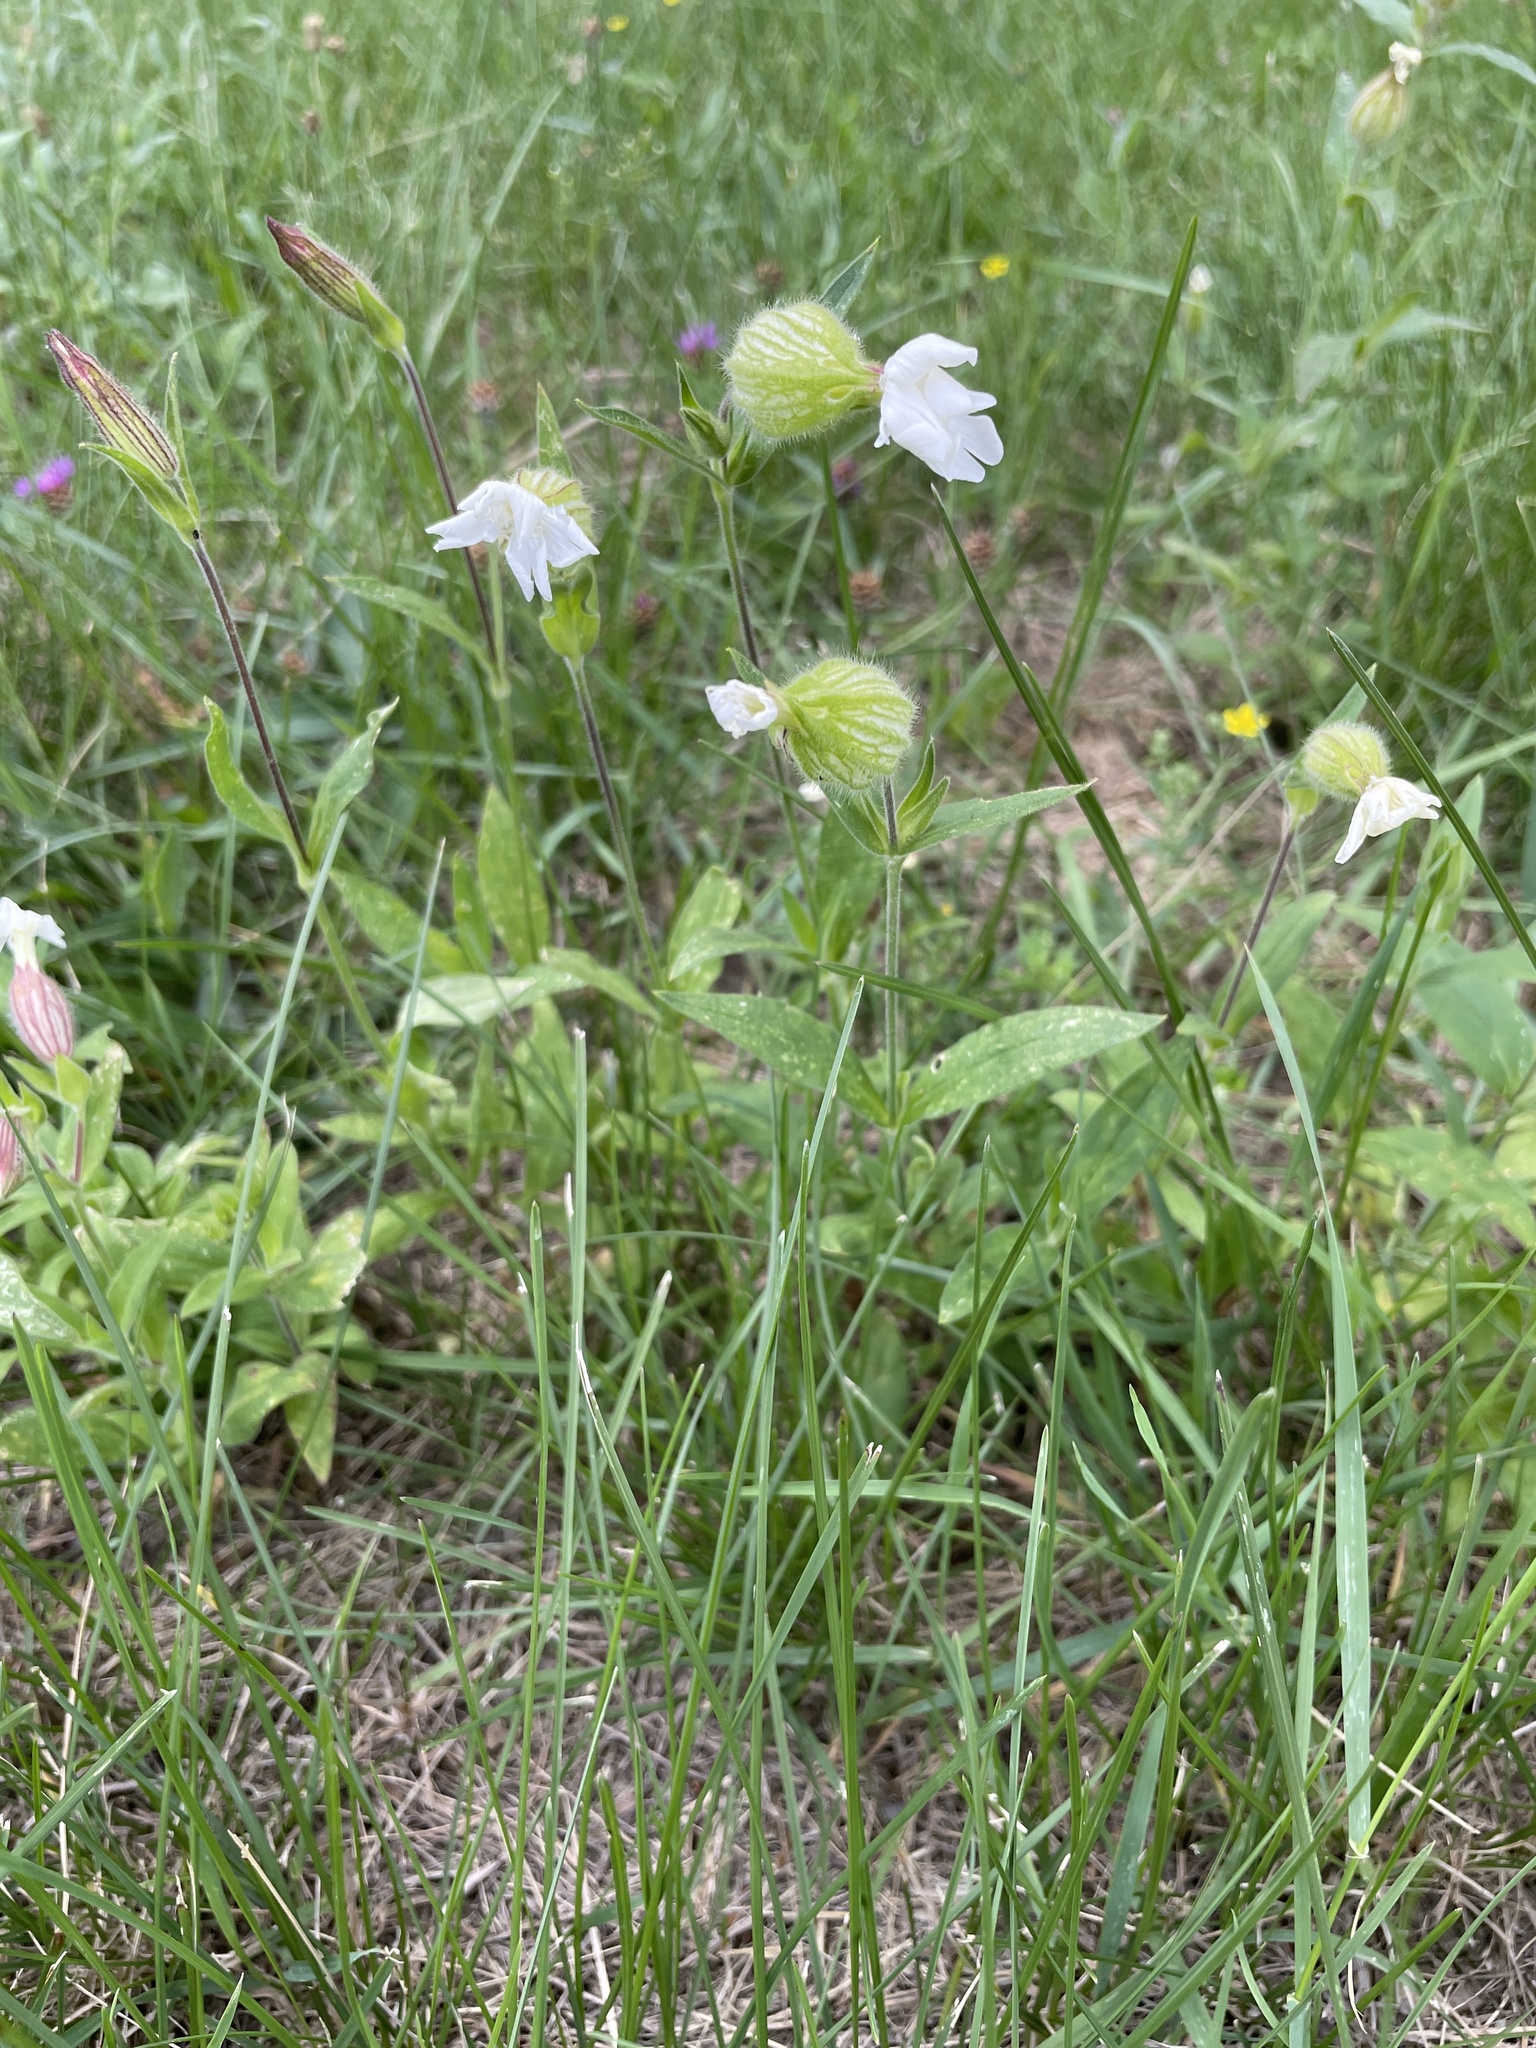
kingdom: Plantae
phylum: Tracheophyta
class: Magnoliopsida
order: Caryophyllales
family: Caryophyllaceae
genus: Silene
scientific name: Silene latifolia
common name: White campion
